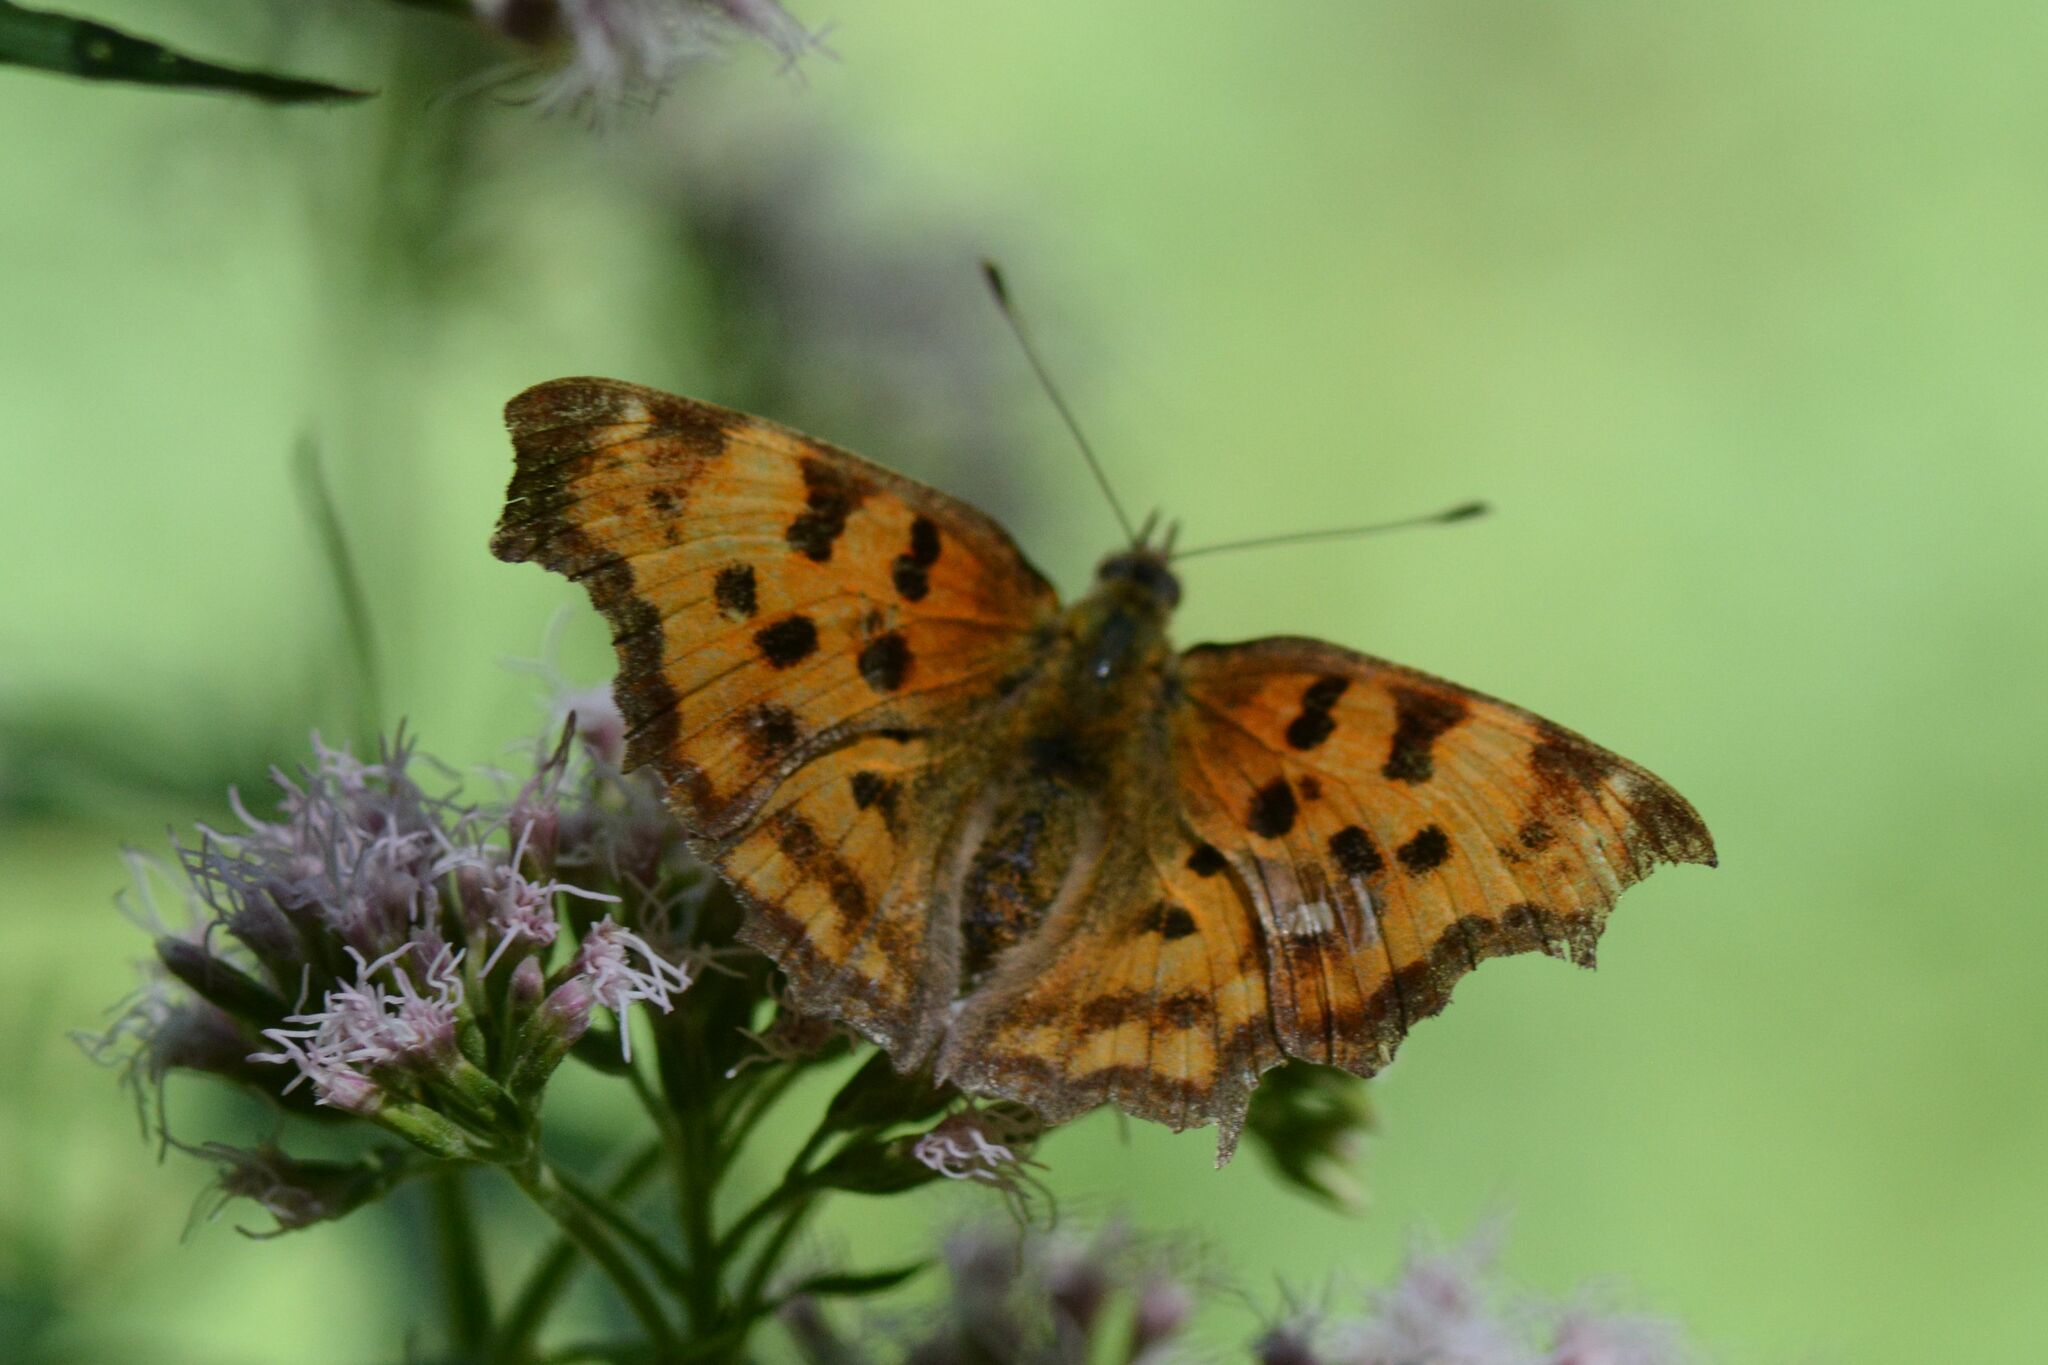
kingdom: Animalia
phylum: Arthropoda
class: Insecta
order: Lepidoptera
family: Nymphalidae
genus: Polygonia
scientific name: Polygonia c-album
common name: Comma
